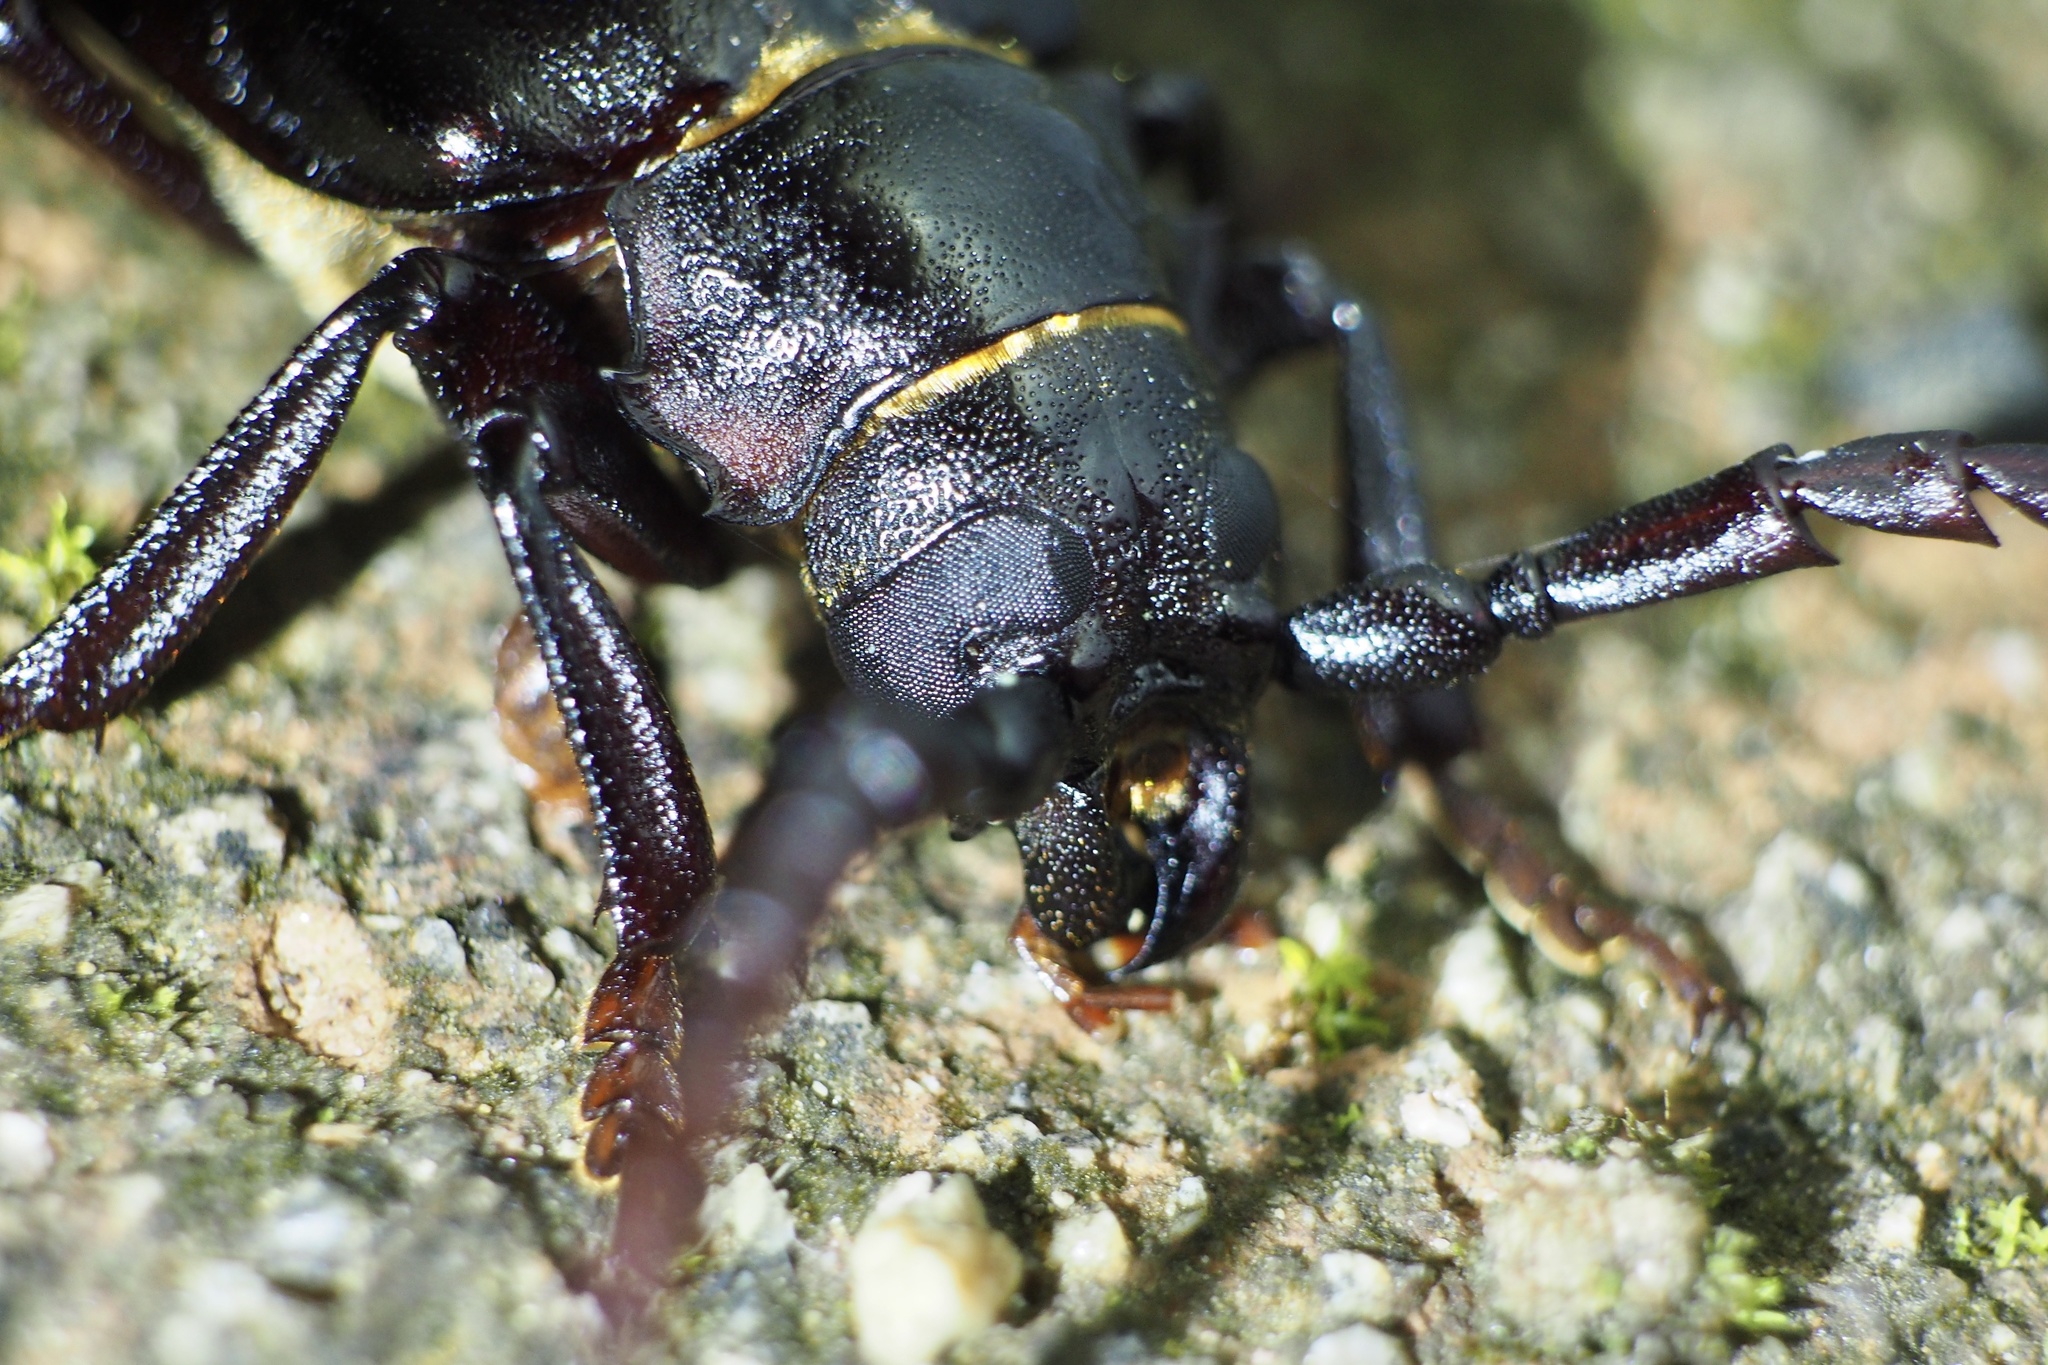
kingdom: Animalia
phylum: Arthropoda
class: Insecta
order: Coleoptera
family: Cerambycidae
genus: Prionus
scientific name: Prionus insularis
